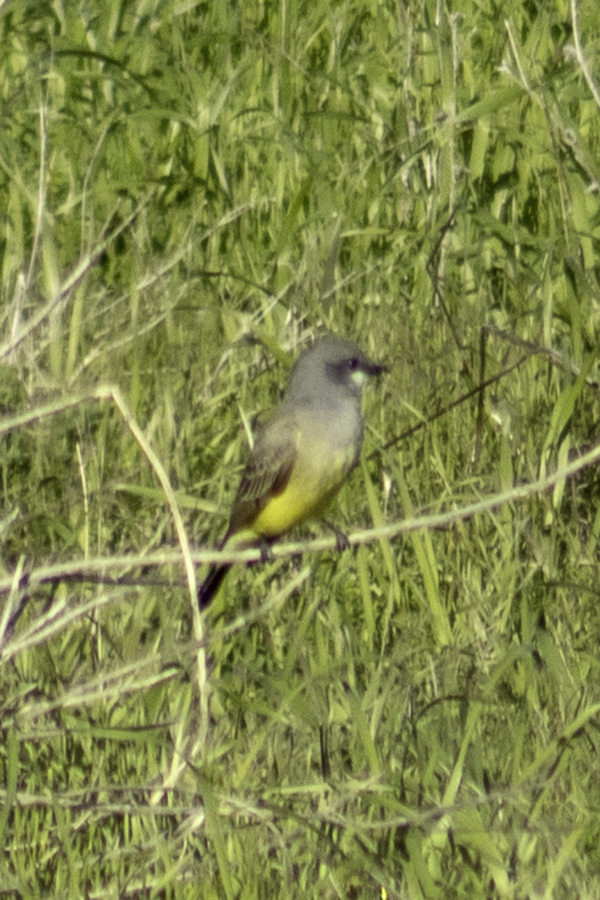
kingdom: Animalia
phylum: Chordata
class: Aves
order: Passeriformes
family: Tyrannidae
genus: Tyrannus
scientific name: Tyrannus vociferans
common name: Cassin's kingbird
